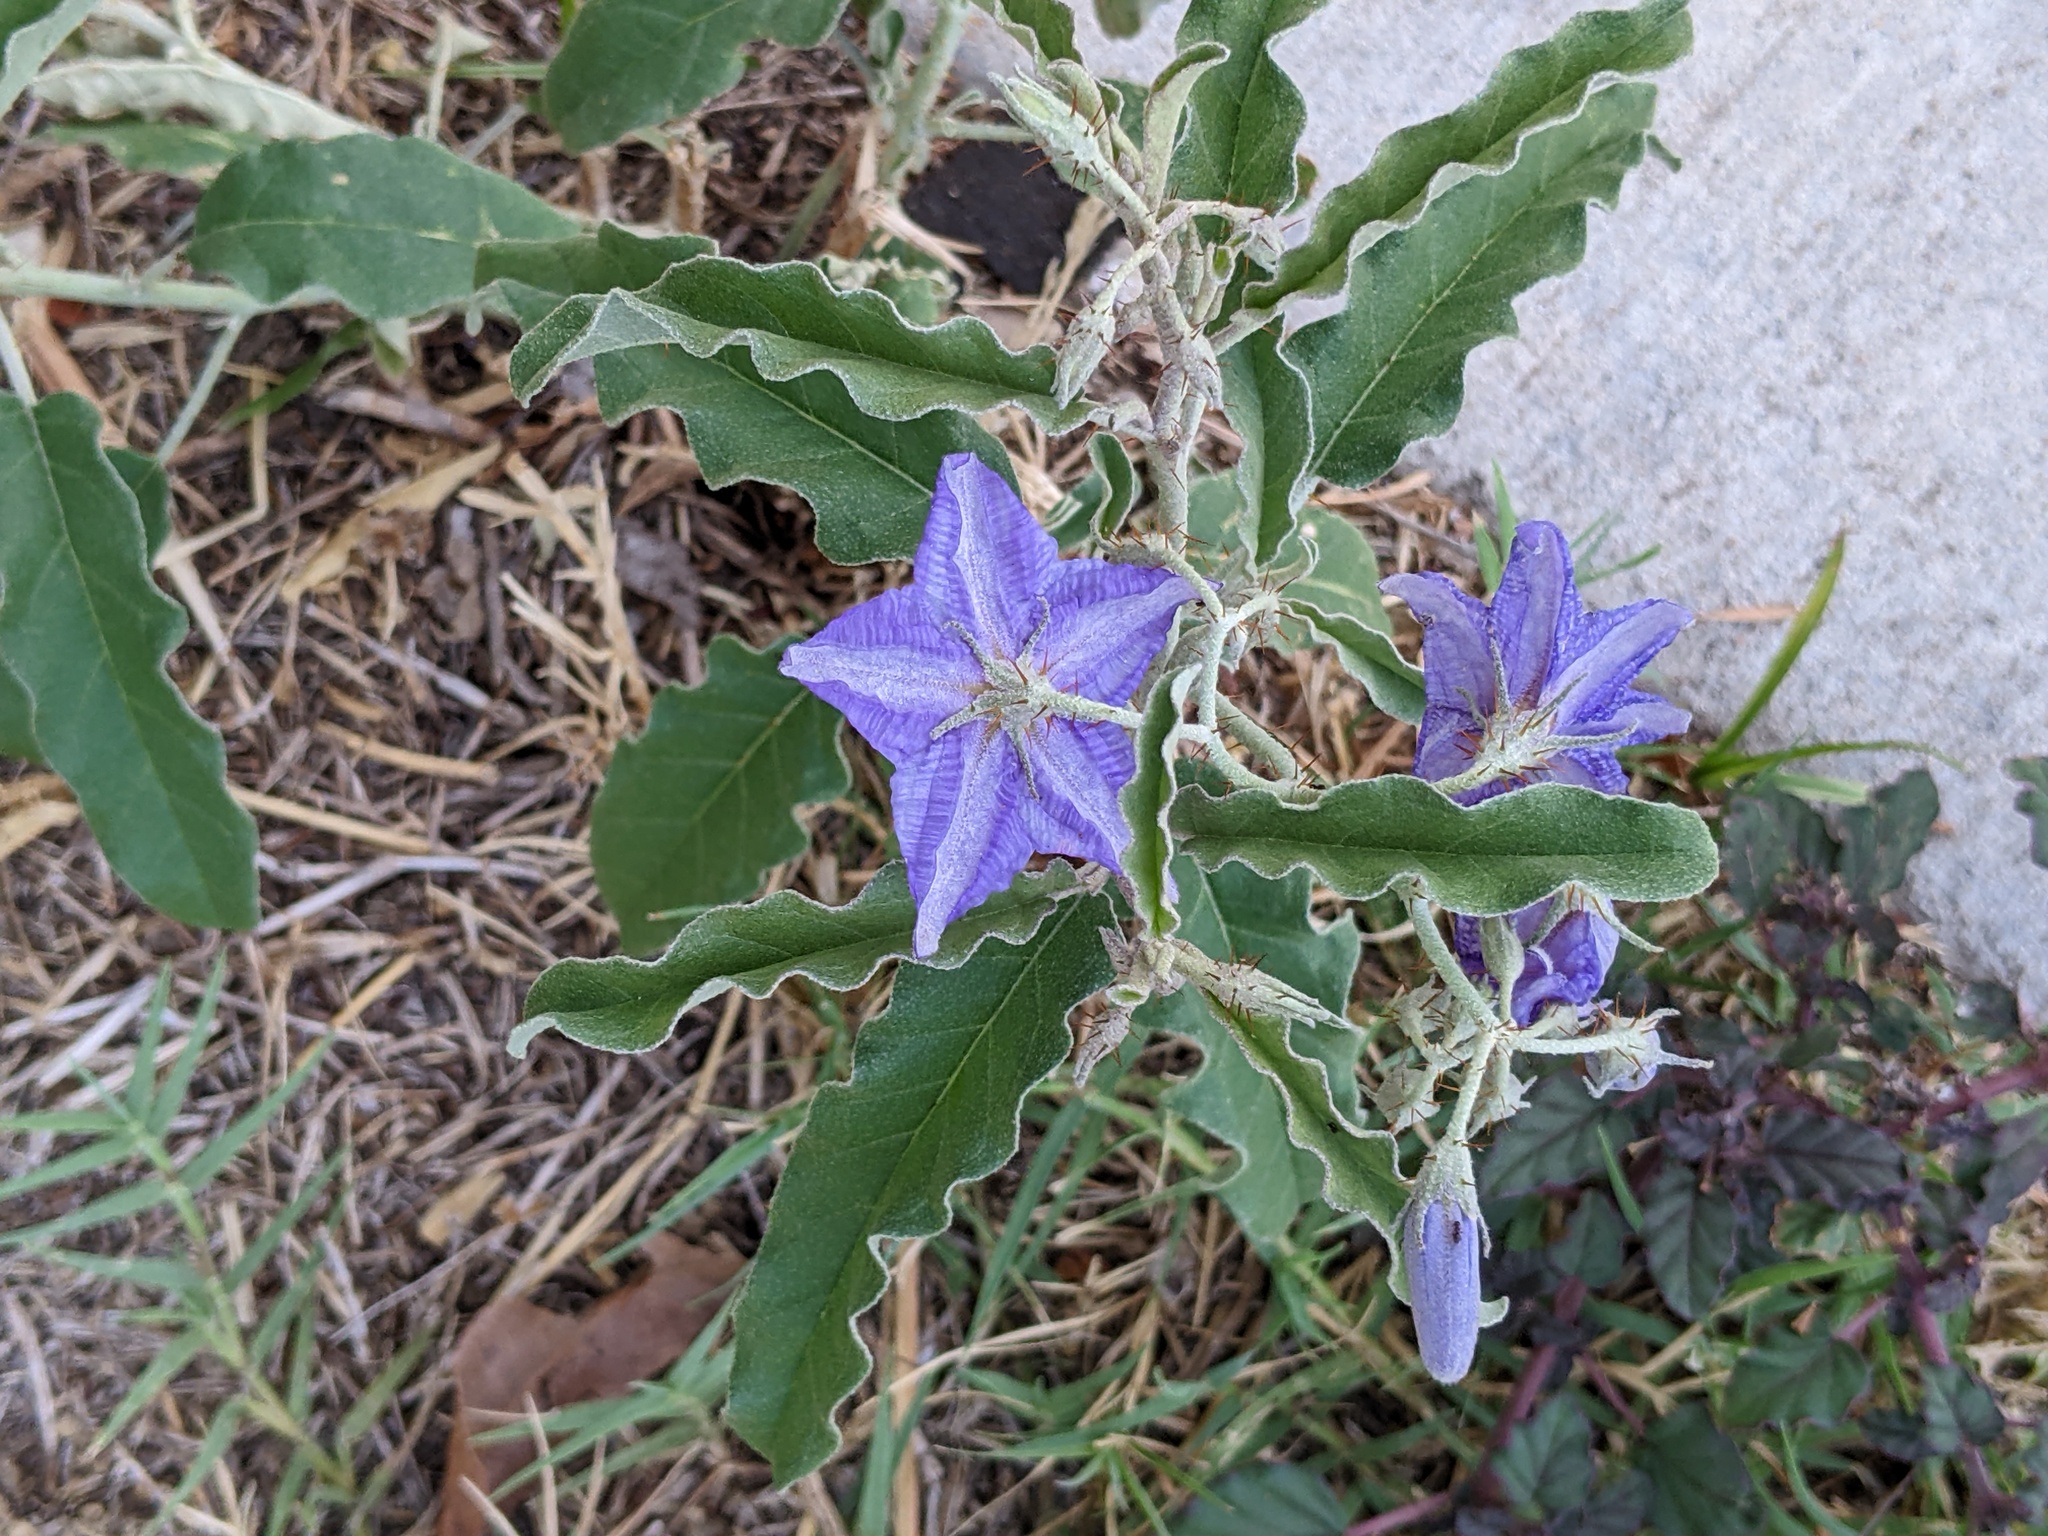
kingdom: Plantae
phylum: Tracheophyta
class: Magnoliopsida
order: Solanales
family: Solanaceae
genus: Solanum
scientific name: Solanum elaeagnifolium
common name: Silverleaf nightshade
